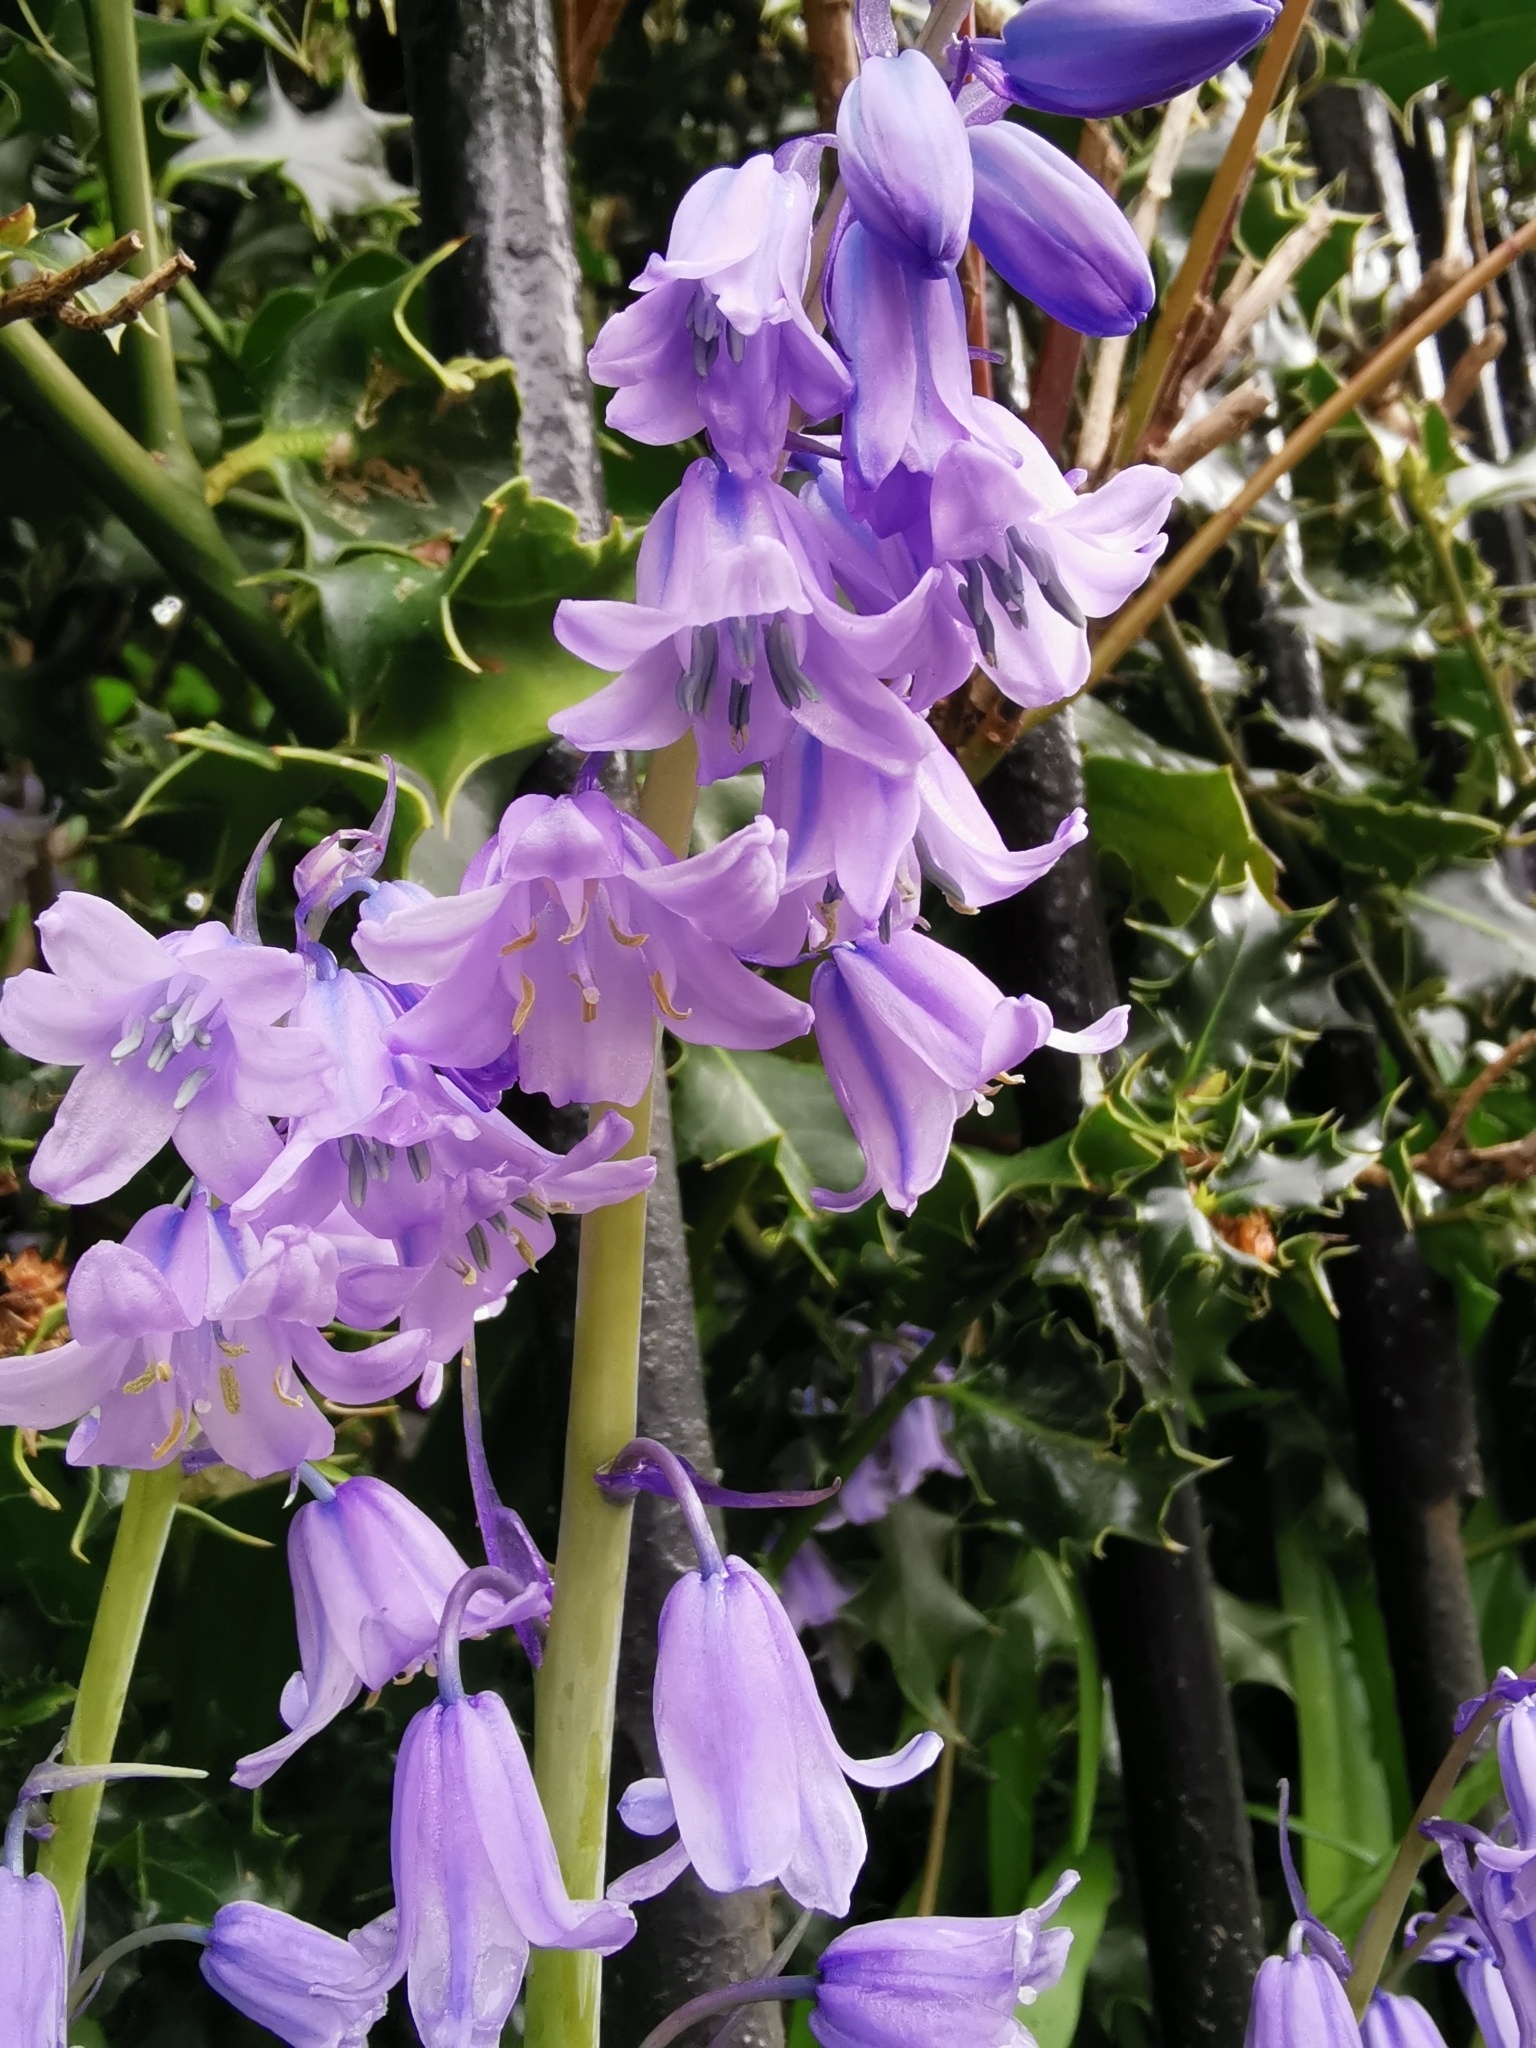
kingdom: Plantae
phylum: Tracheophyta
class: Liliopsida
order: Asparagales
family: Asparagaceae
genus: Hyacinthoides
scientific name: Hyacinthoides massartiana
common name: Hyacinthoides
